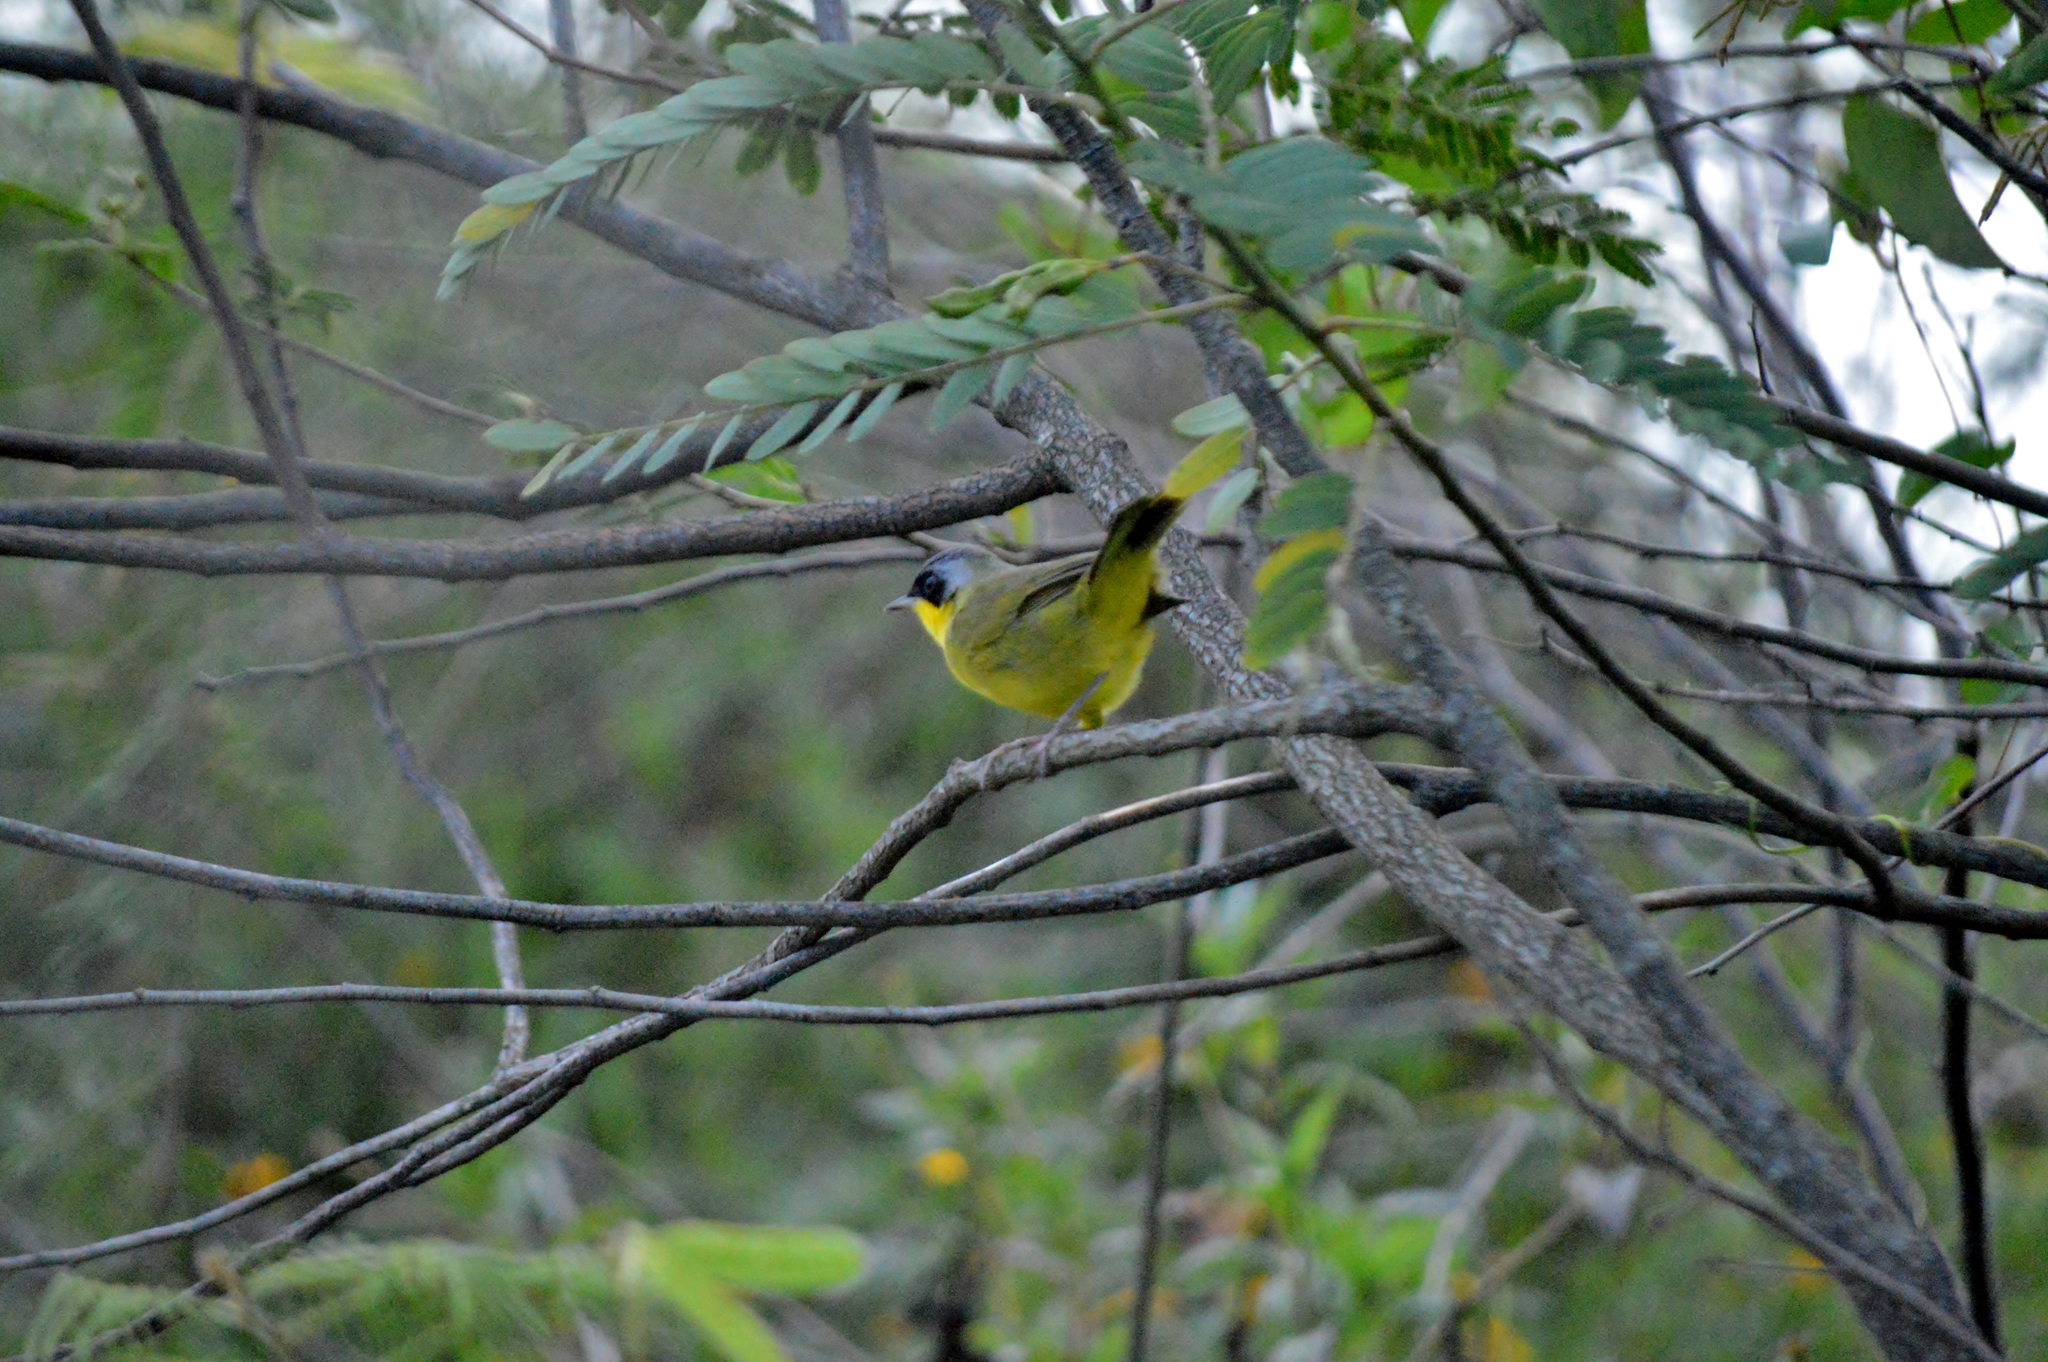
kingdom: Animalia
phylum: Chordata
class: Aves
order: Passeriformes
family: Parulidae
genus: Geothlypis
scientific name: Geothlypis velata
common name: Southern yellowthroat
